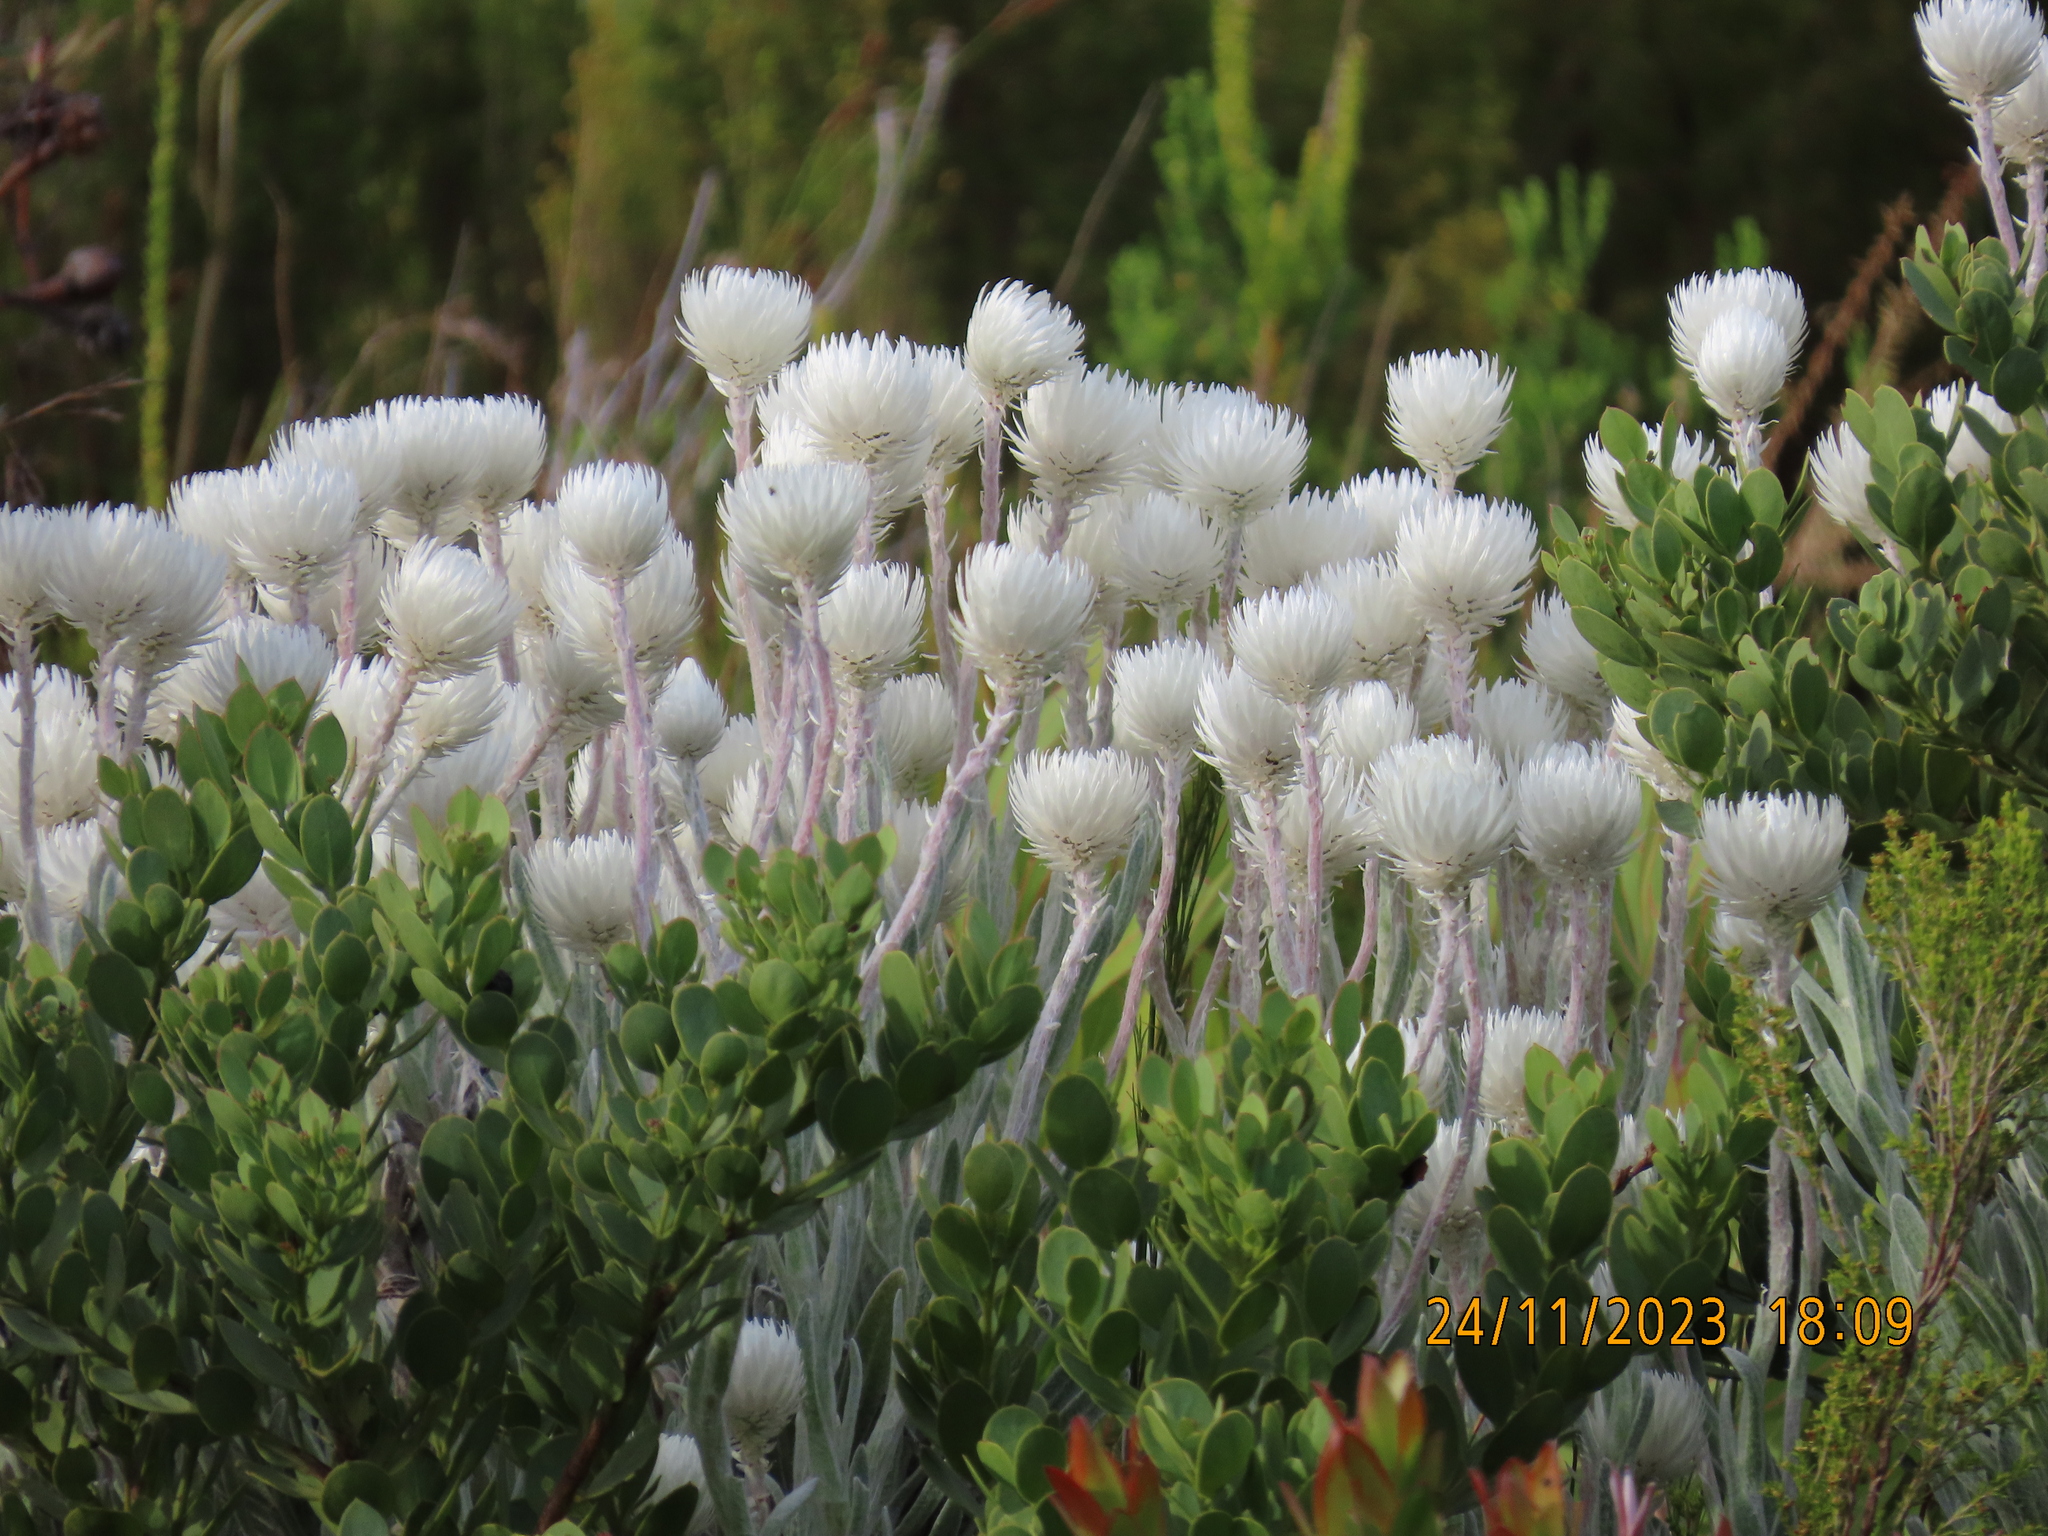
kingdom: Plantae
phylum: Tracheophyta
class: Magnoliopsida
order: Asterales
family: Asteraceae
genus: Syncarpha
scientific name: Syncarpha vestita
